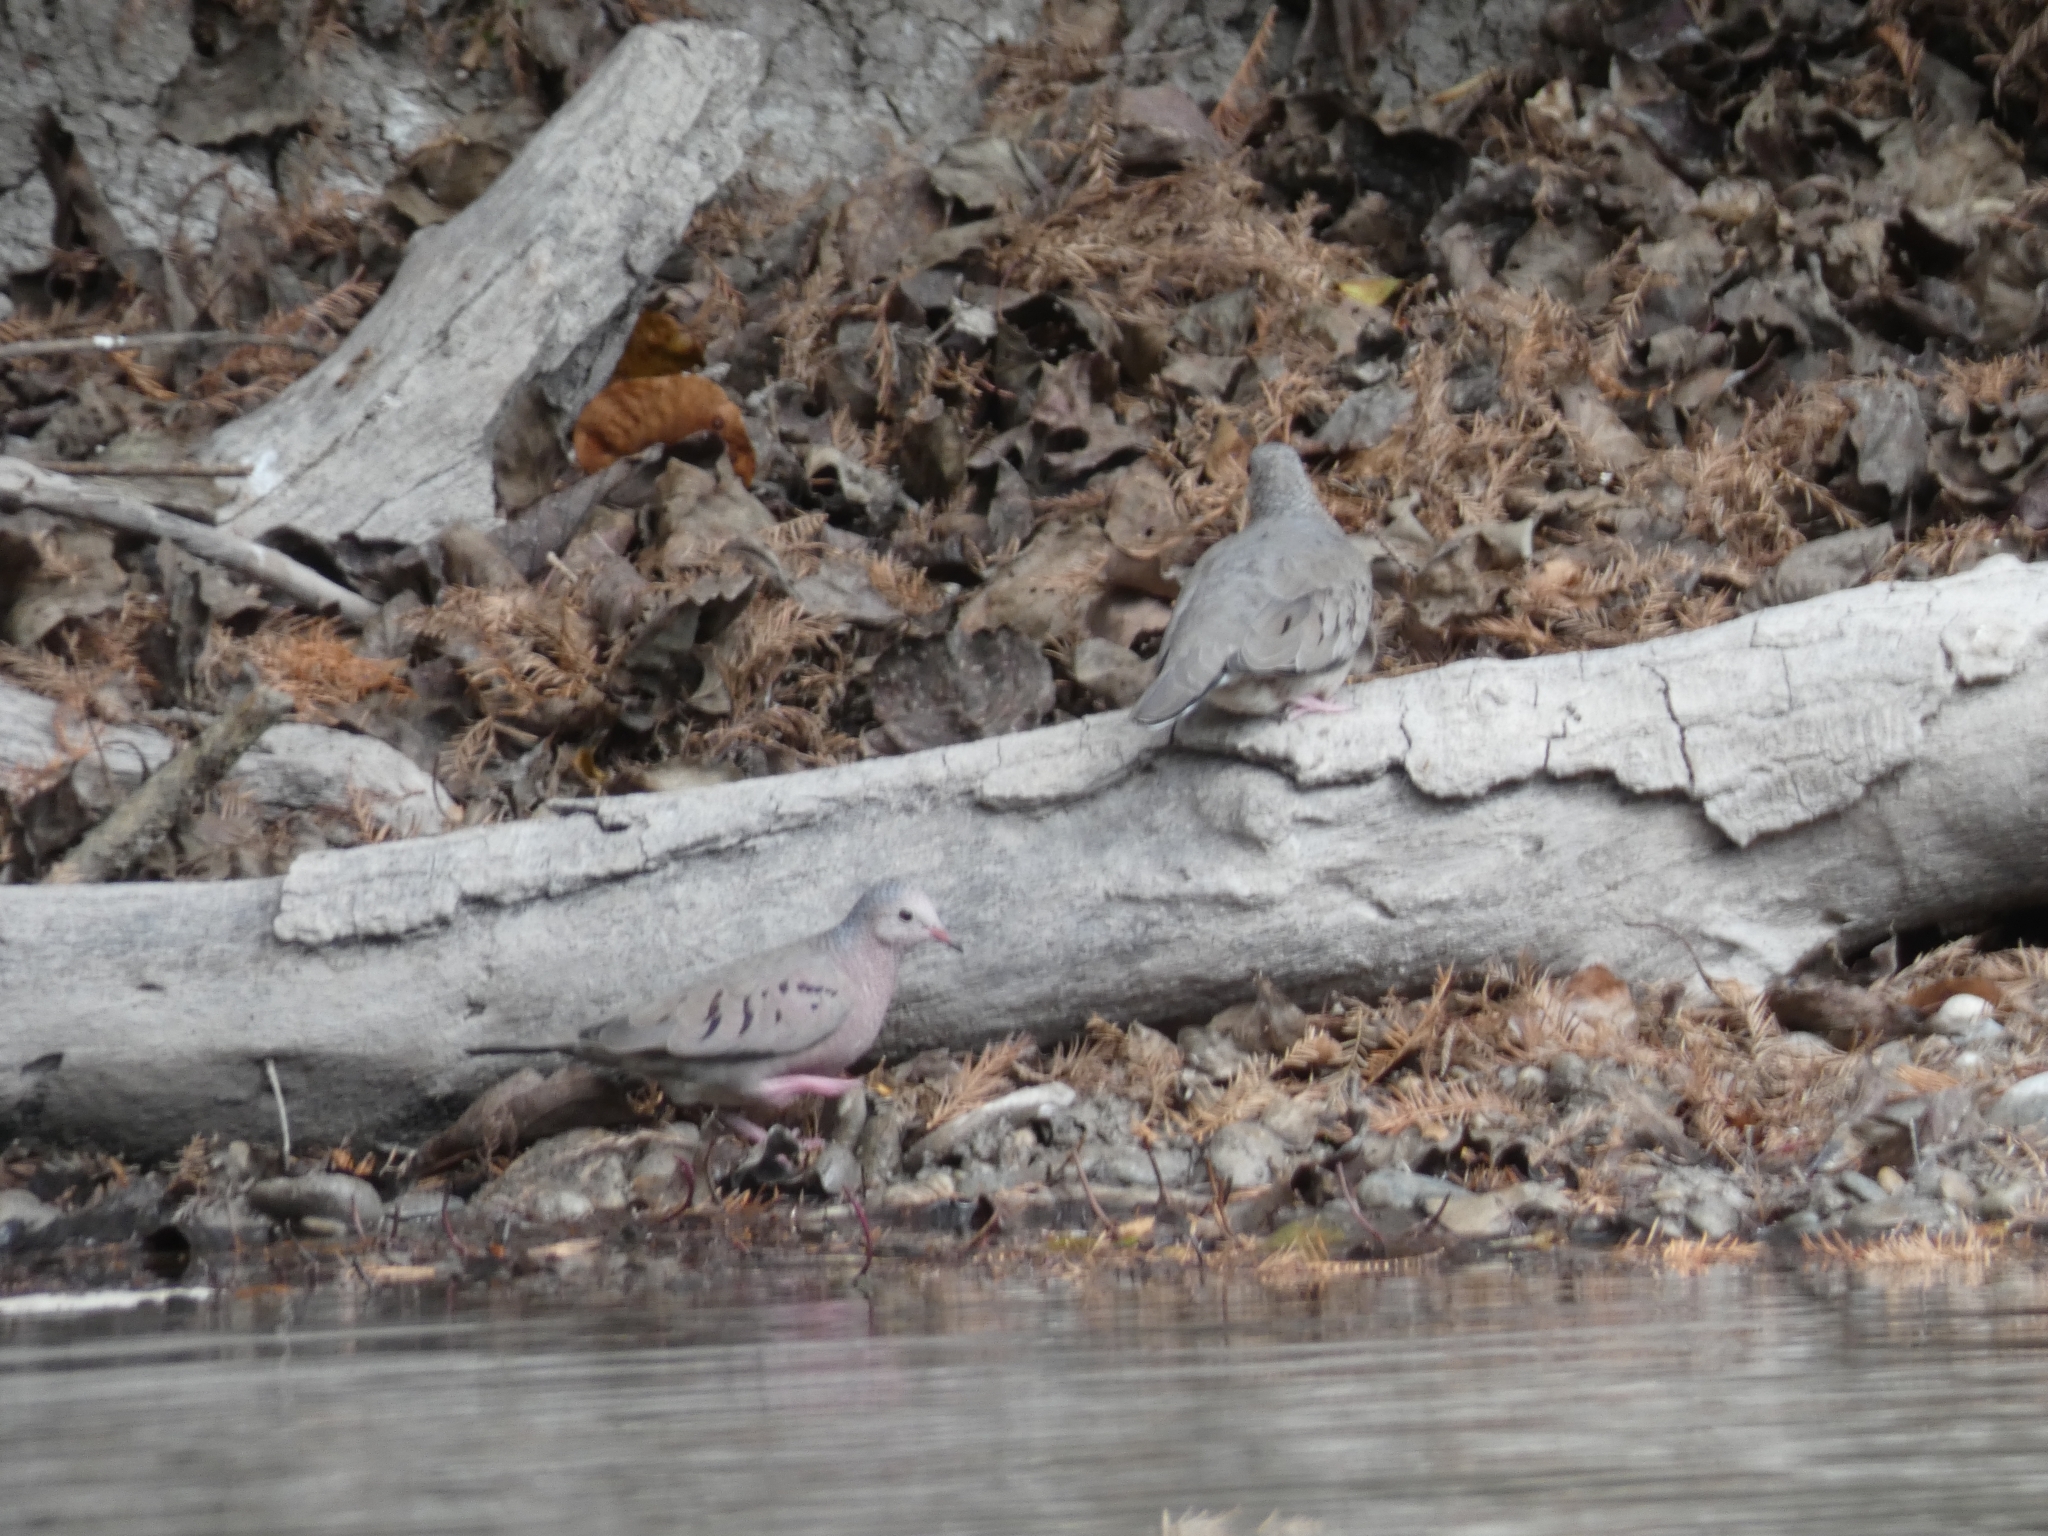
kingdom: Animalia
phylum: Chordata
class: Aves
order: Columbiformes
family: Columbidae
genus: Columbina
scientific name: Columbina passerina
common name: Common ground-dove
